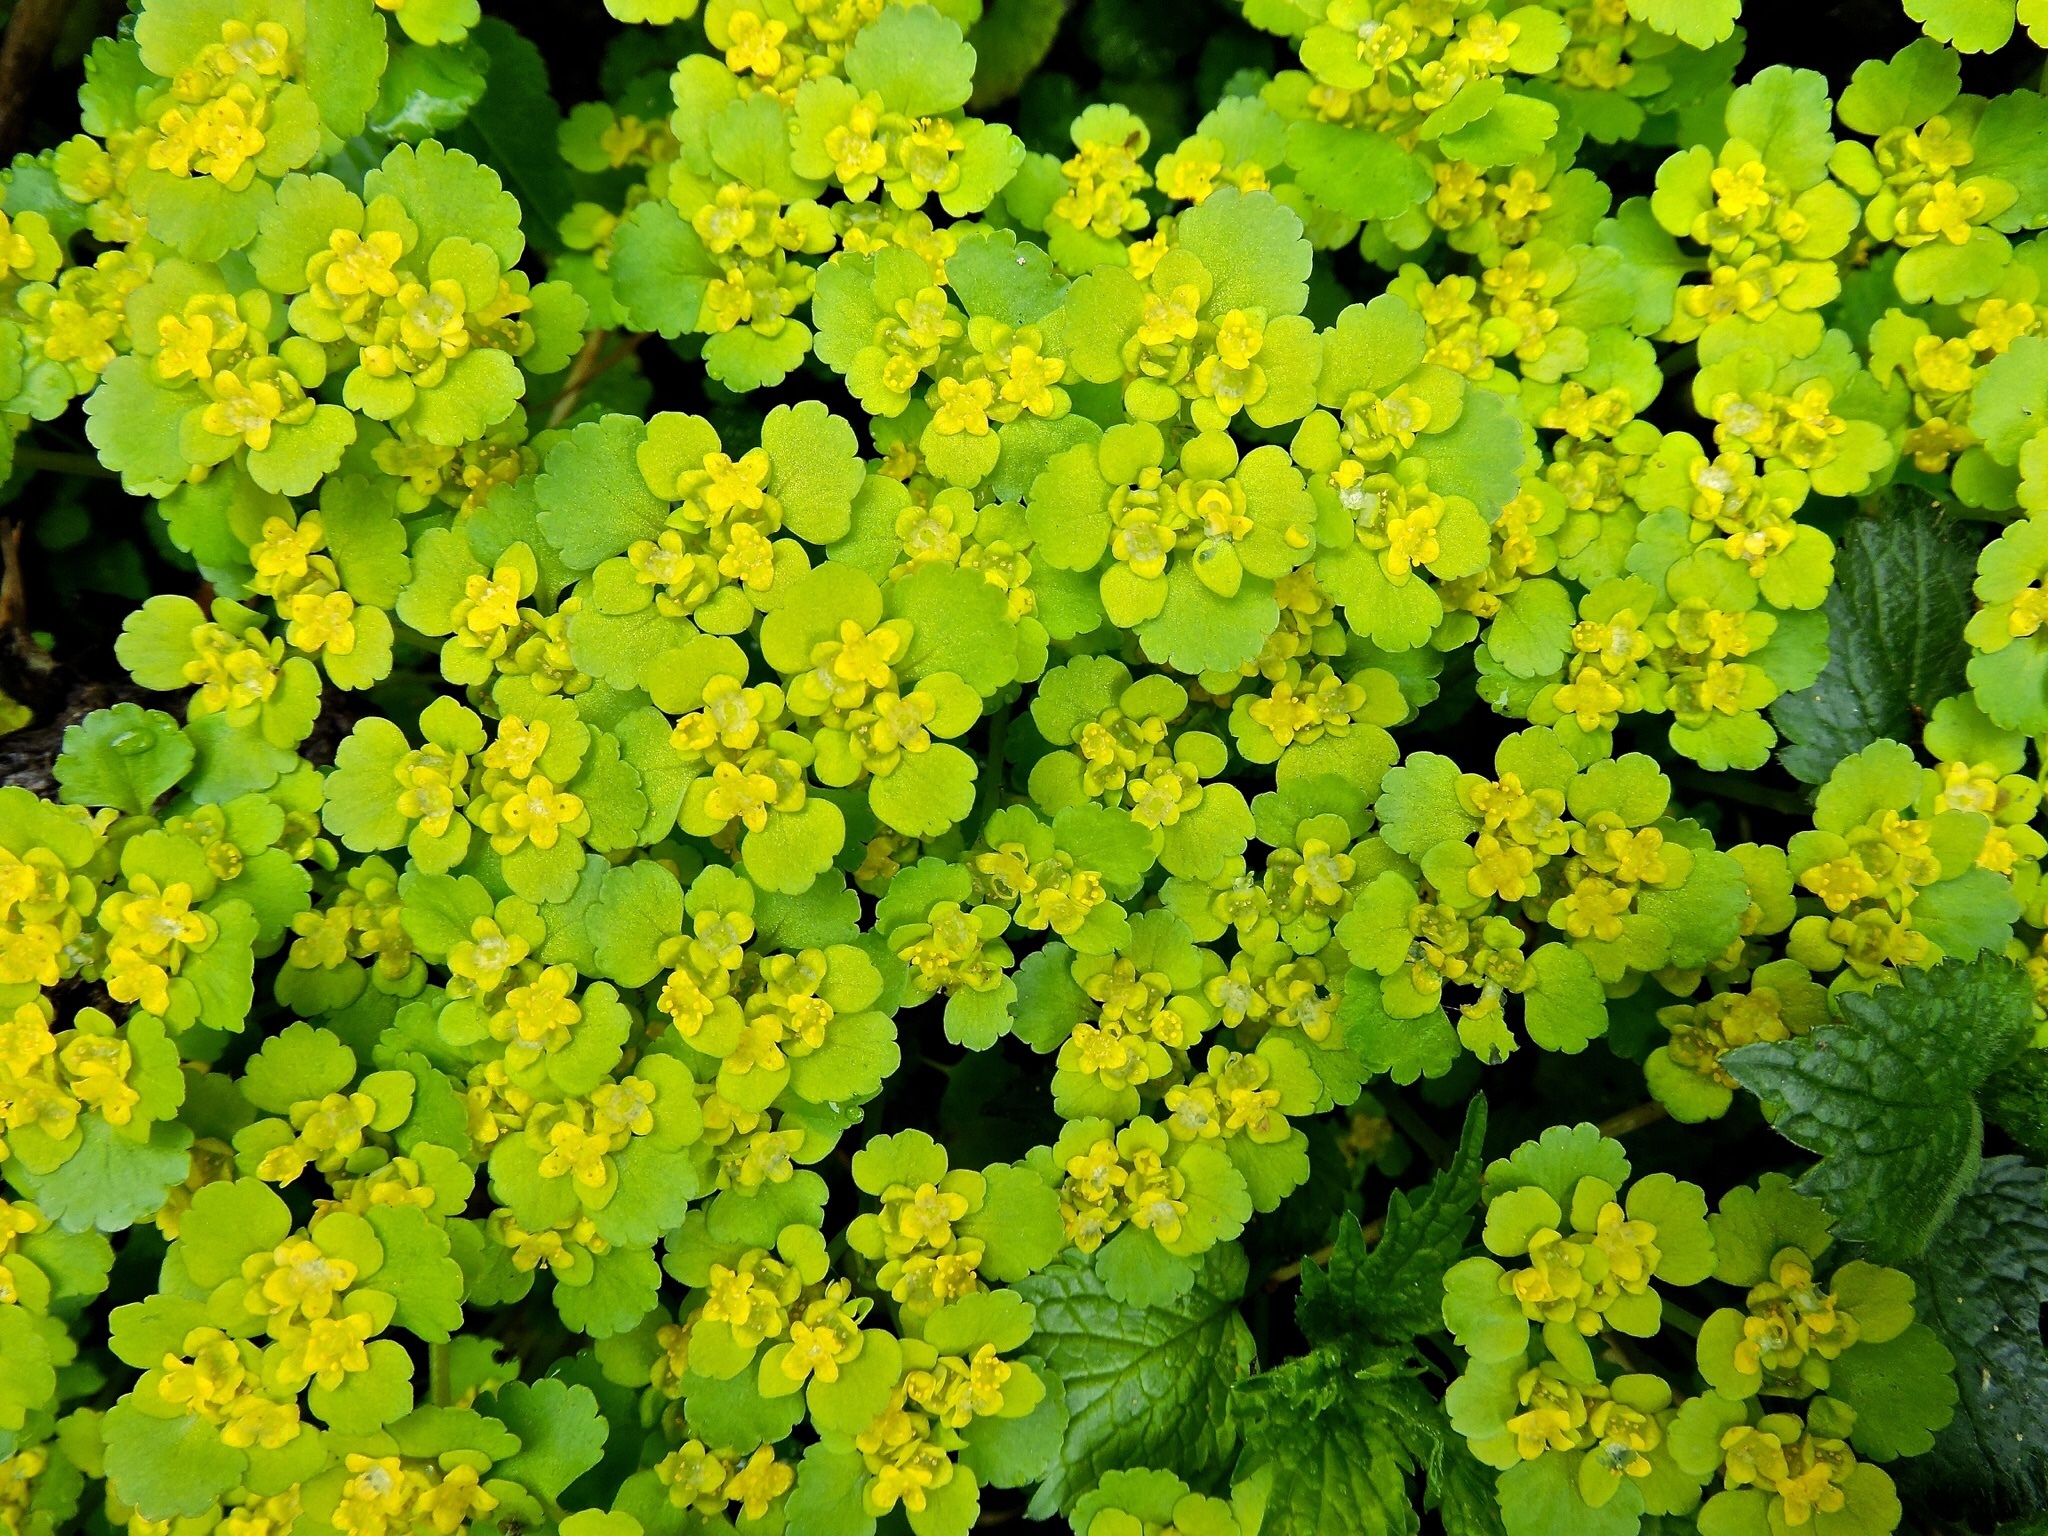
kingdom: Plantae
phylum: Tracheophyta
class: Magnoliopsida
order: Saxifragales
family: Saxifragaceae
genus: Chrysosplenium
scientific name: Chrysosplenium alternifolium
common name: Alternate-leaved golden-saxifrage
